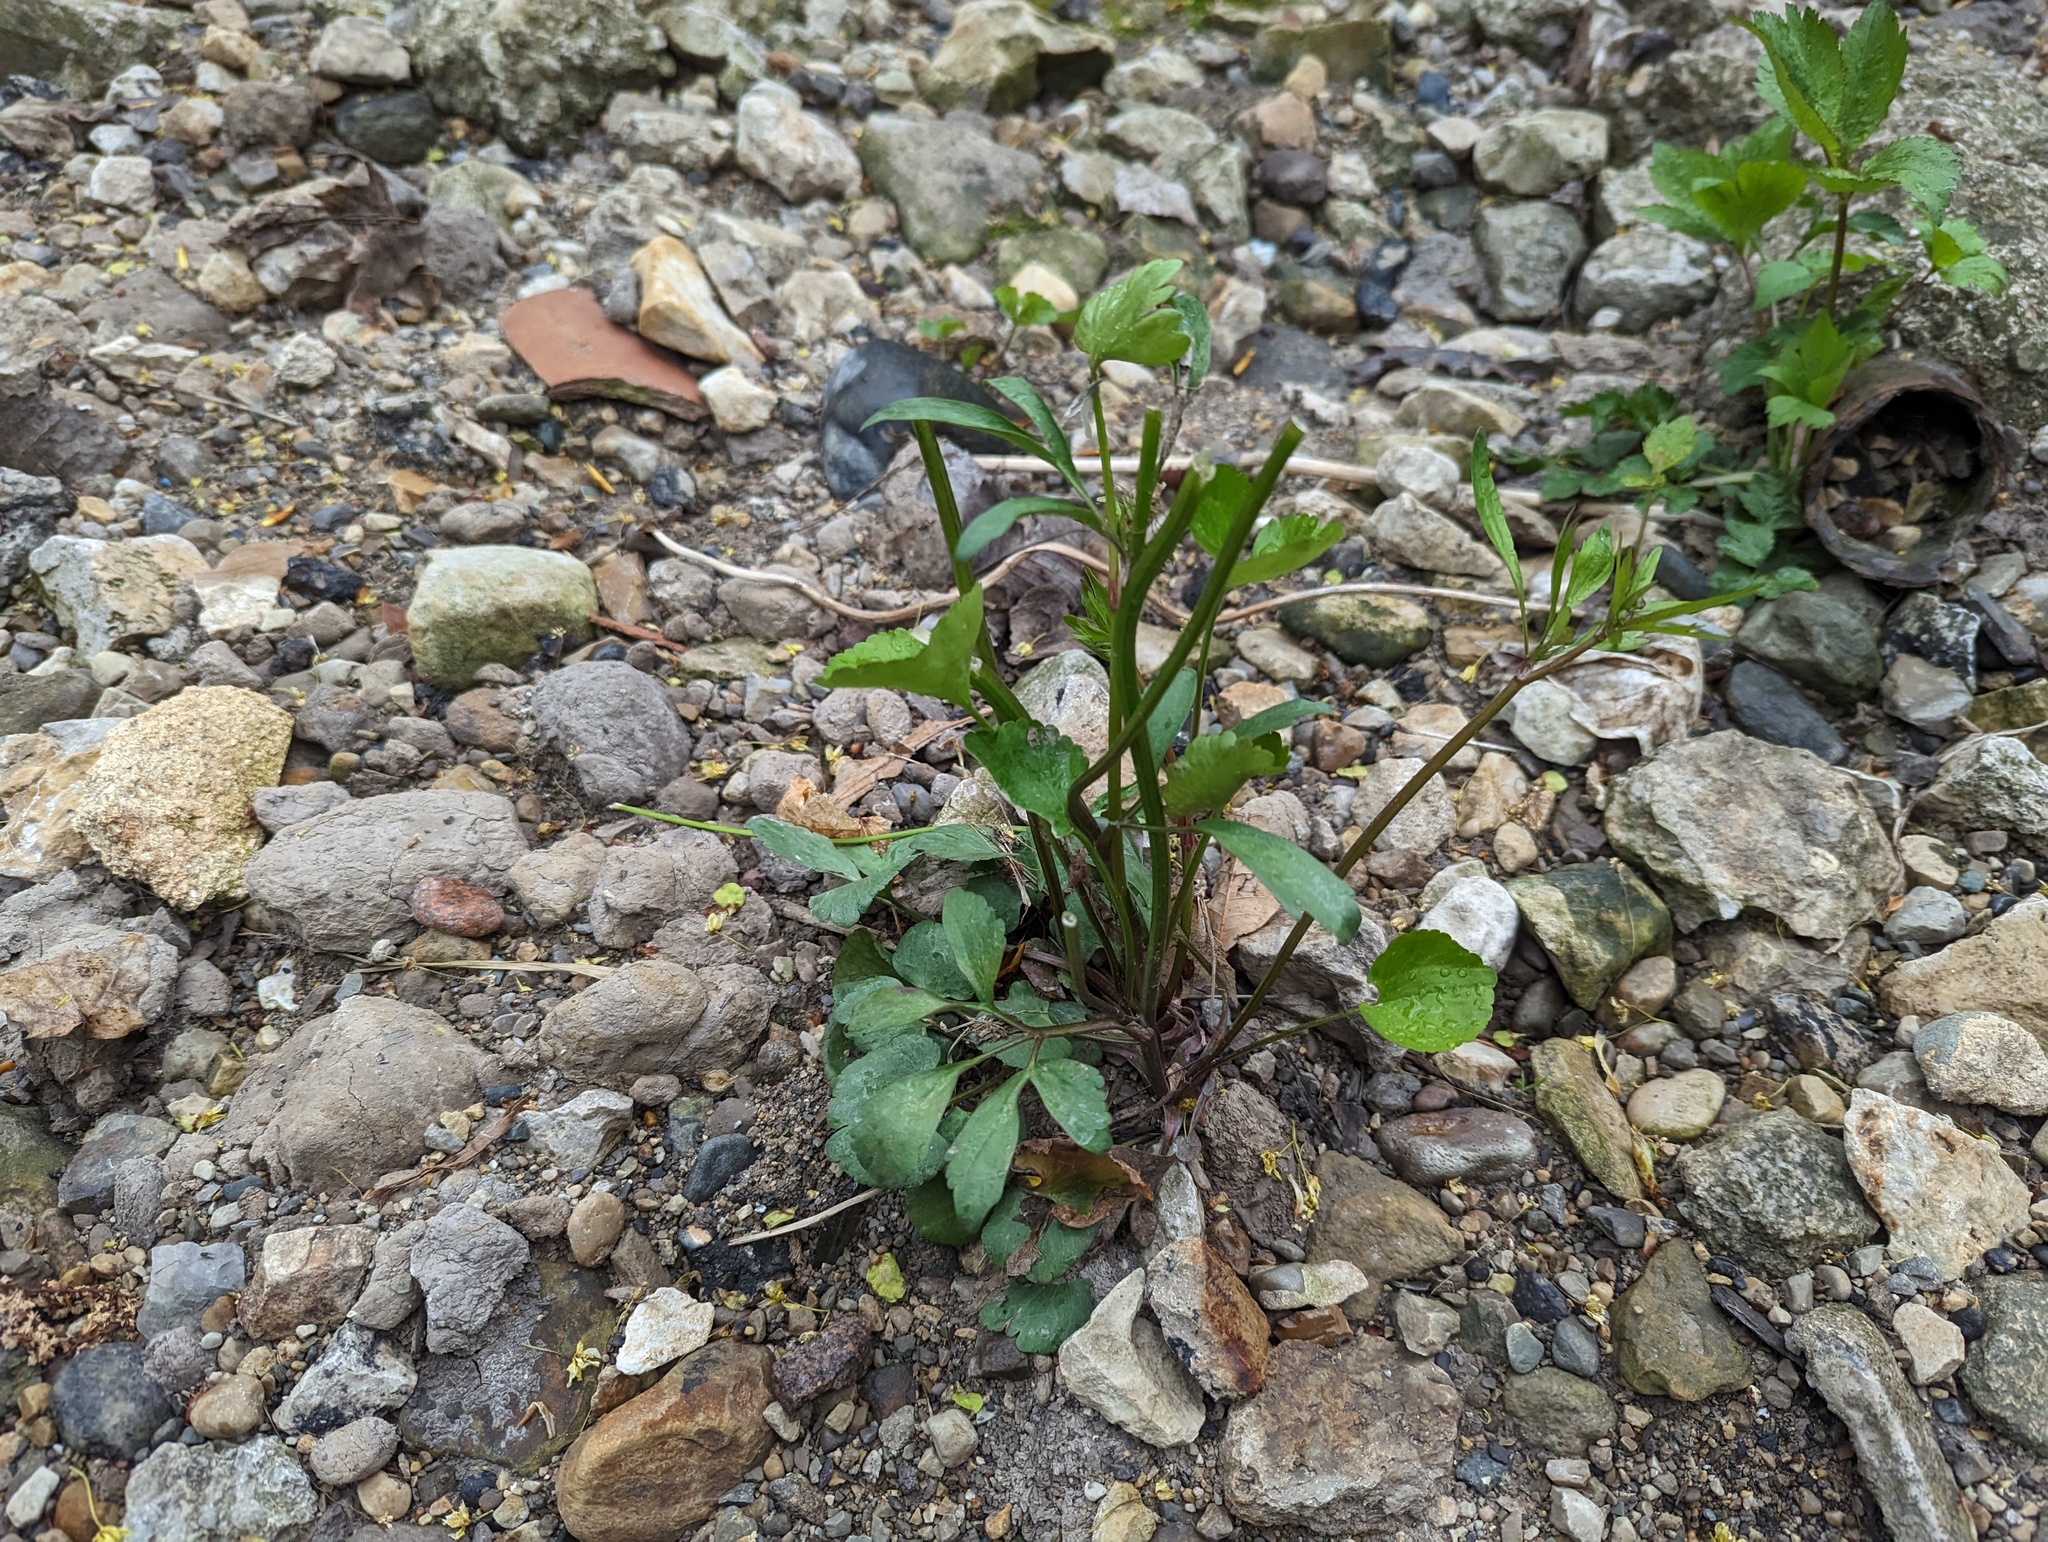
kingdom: Plantae
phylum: Tracheophyta
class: Magnoliopsida
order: Ranunculales
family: Ranunculaceae
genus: Ranunculus
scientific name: Ranunculus abortivus
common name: Early wood buttercup
